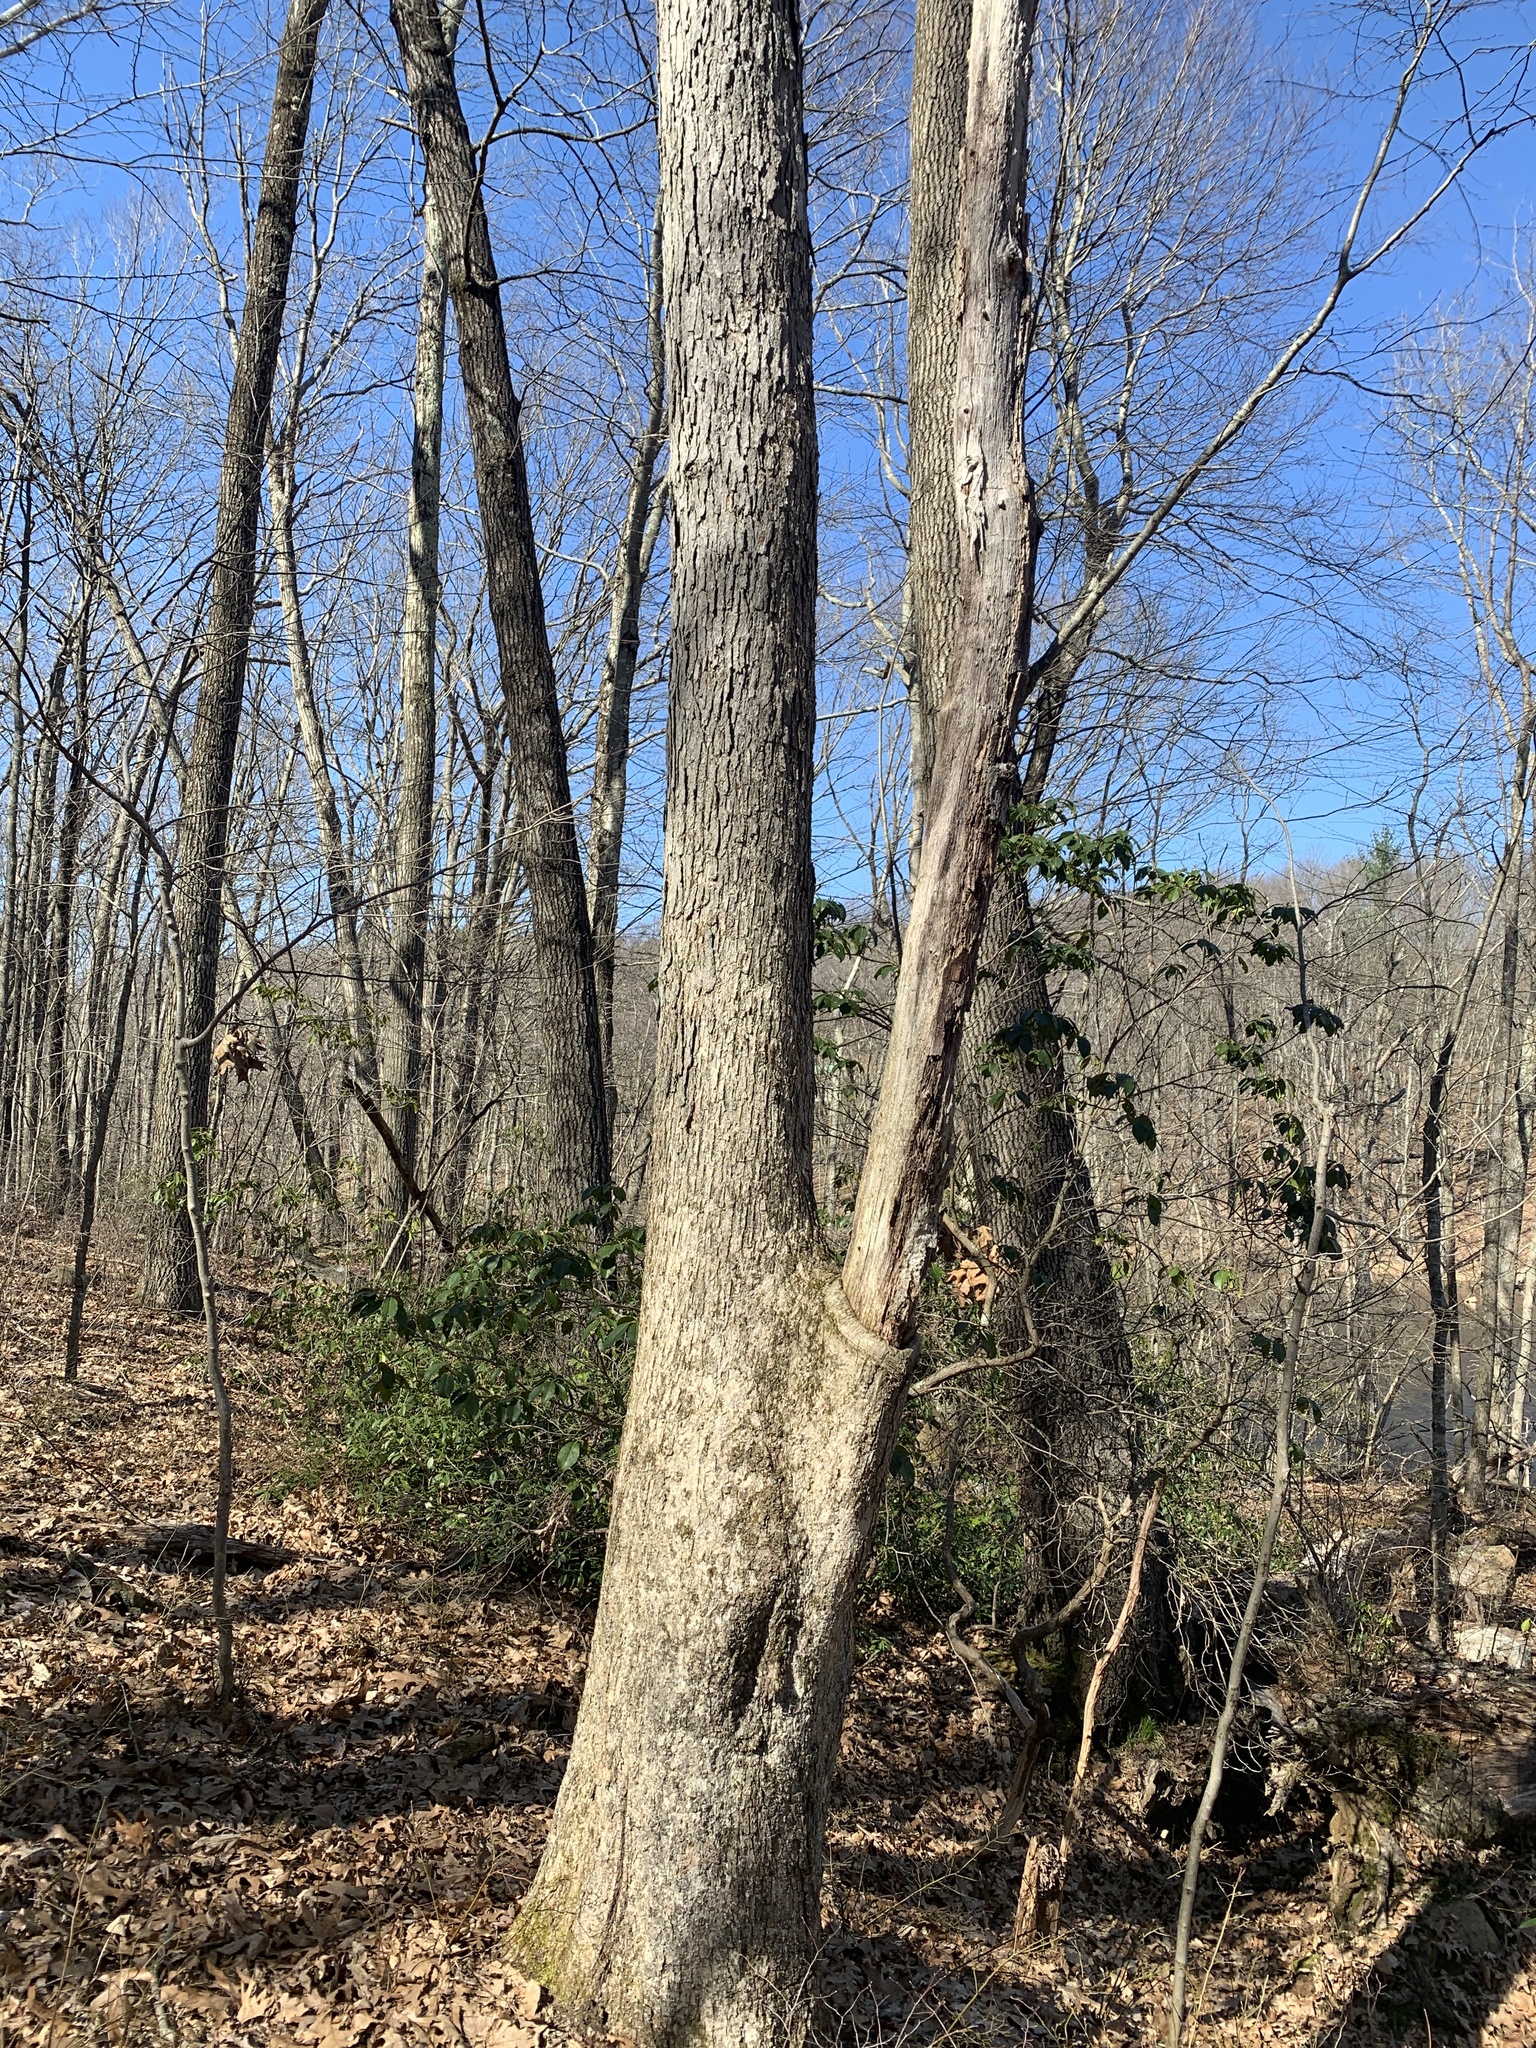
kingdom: Plantae
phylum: Tracheophyta
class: Magnoliopsida
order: Fagales
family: Fagaceae
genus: Quercus
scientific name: Quercus alba
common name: White oak
